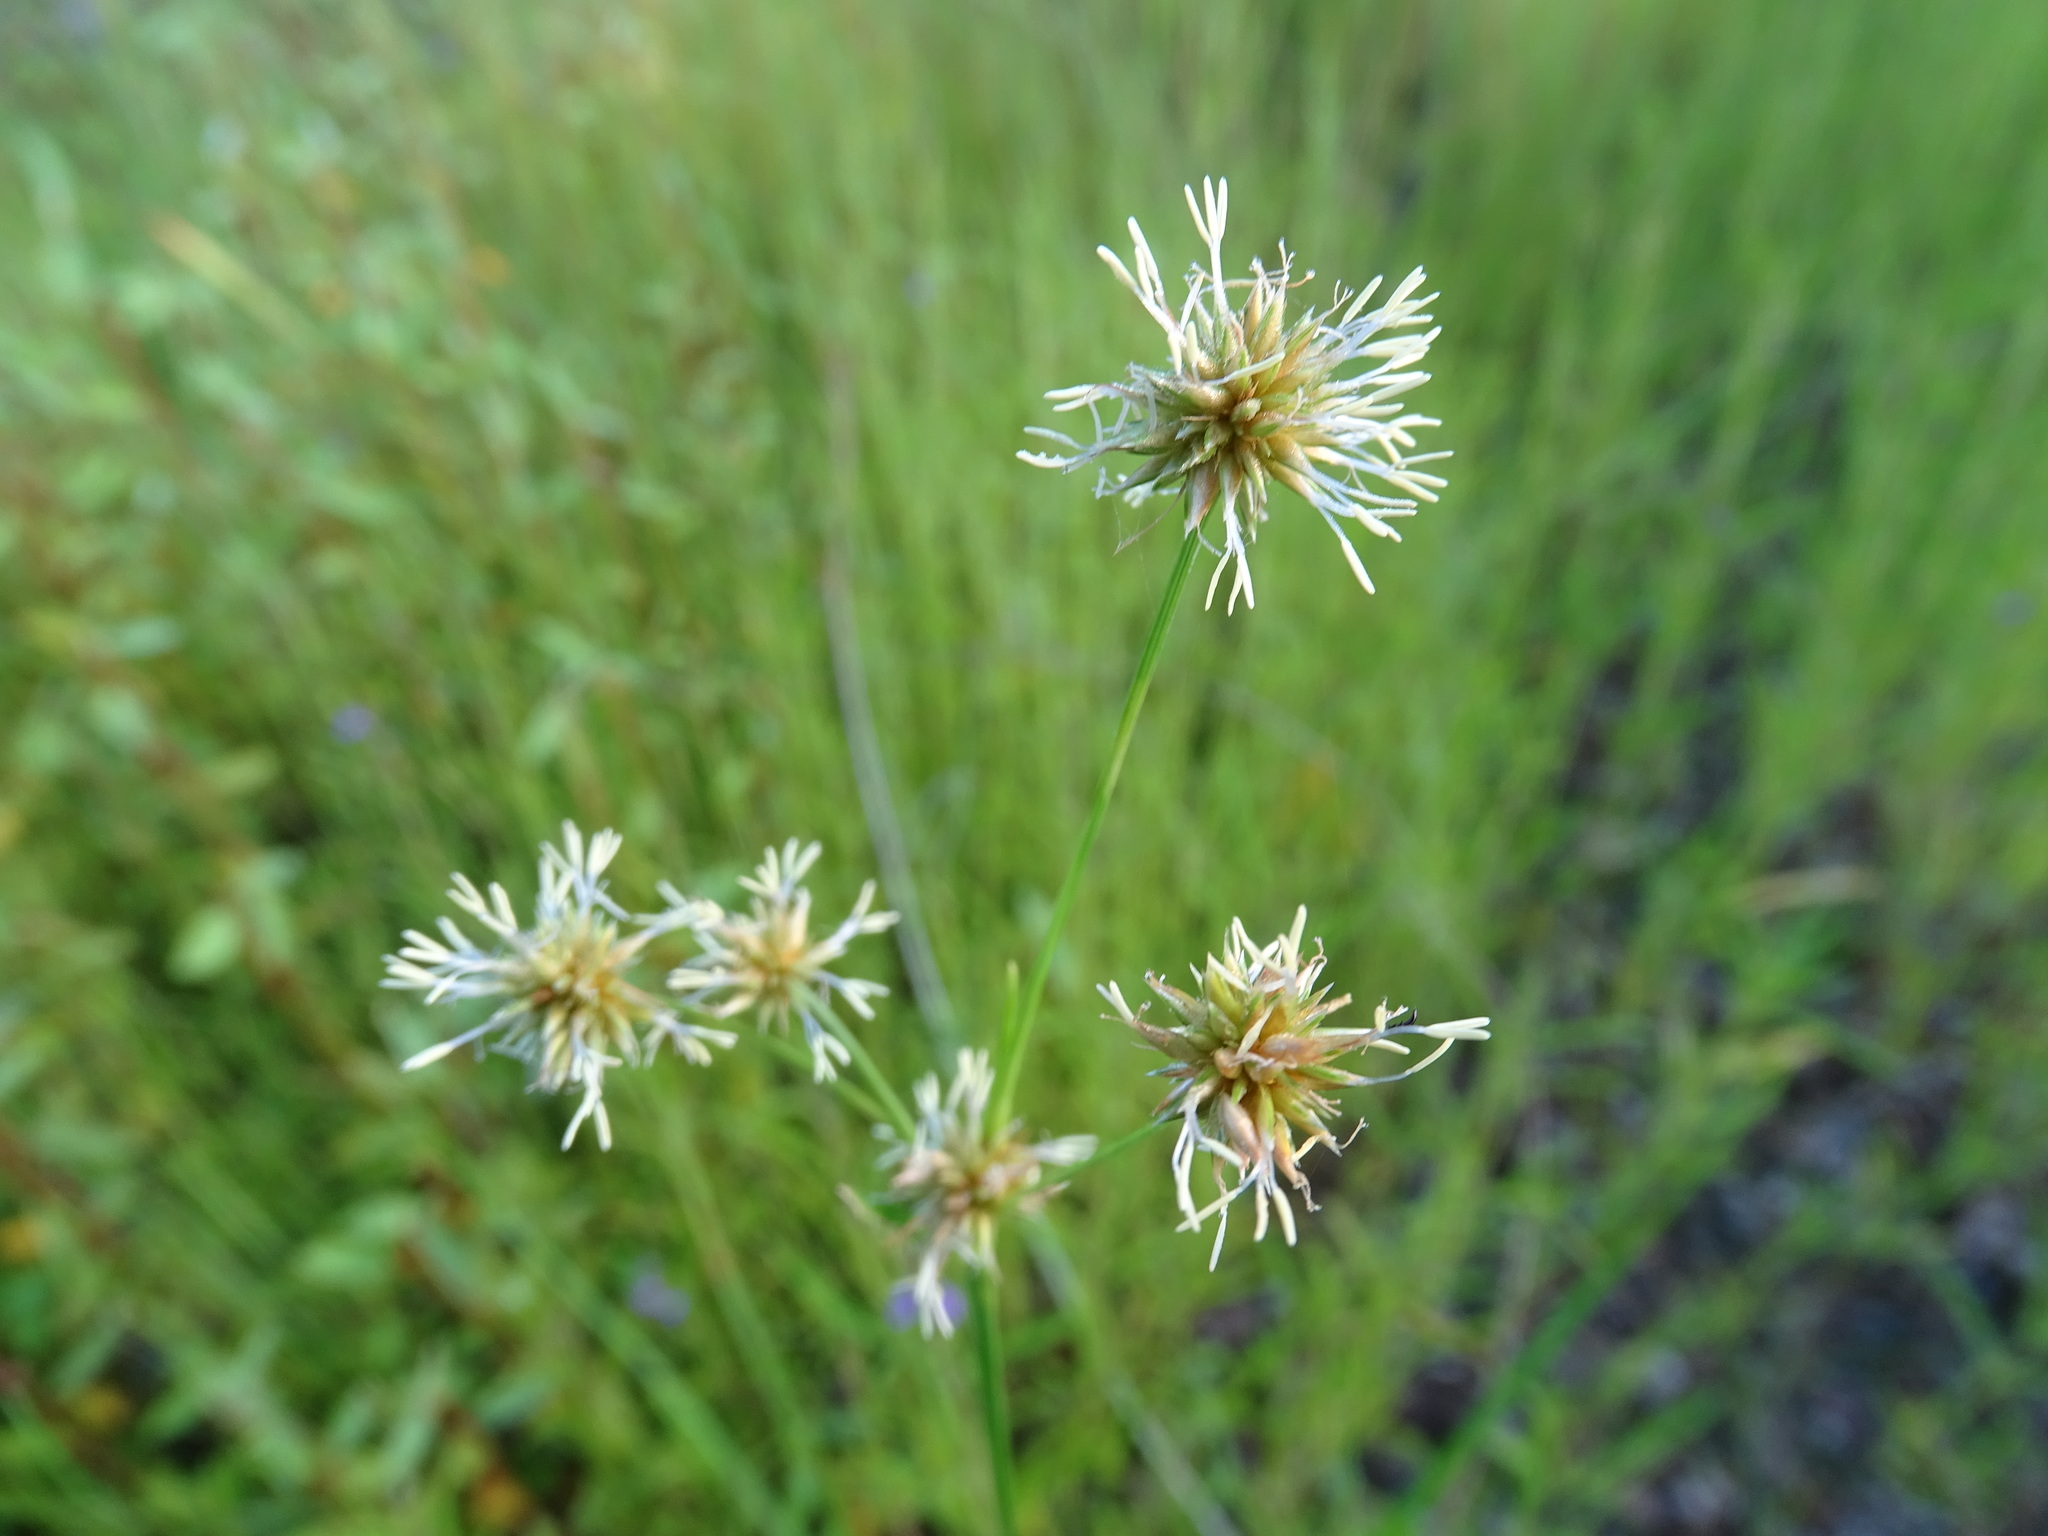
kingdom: Plantae
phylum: Tracheophyta
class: Liliopsida
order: Poales
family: Cyperaceae
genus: Rhynchospora
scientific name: Rhynchospora holoschoenoides
